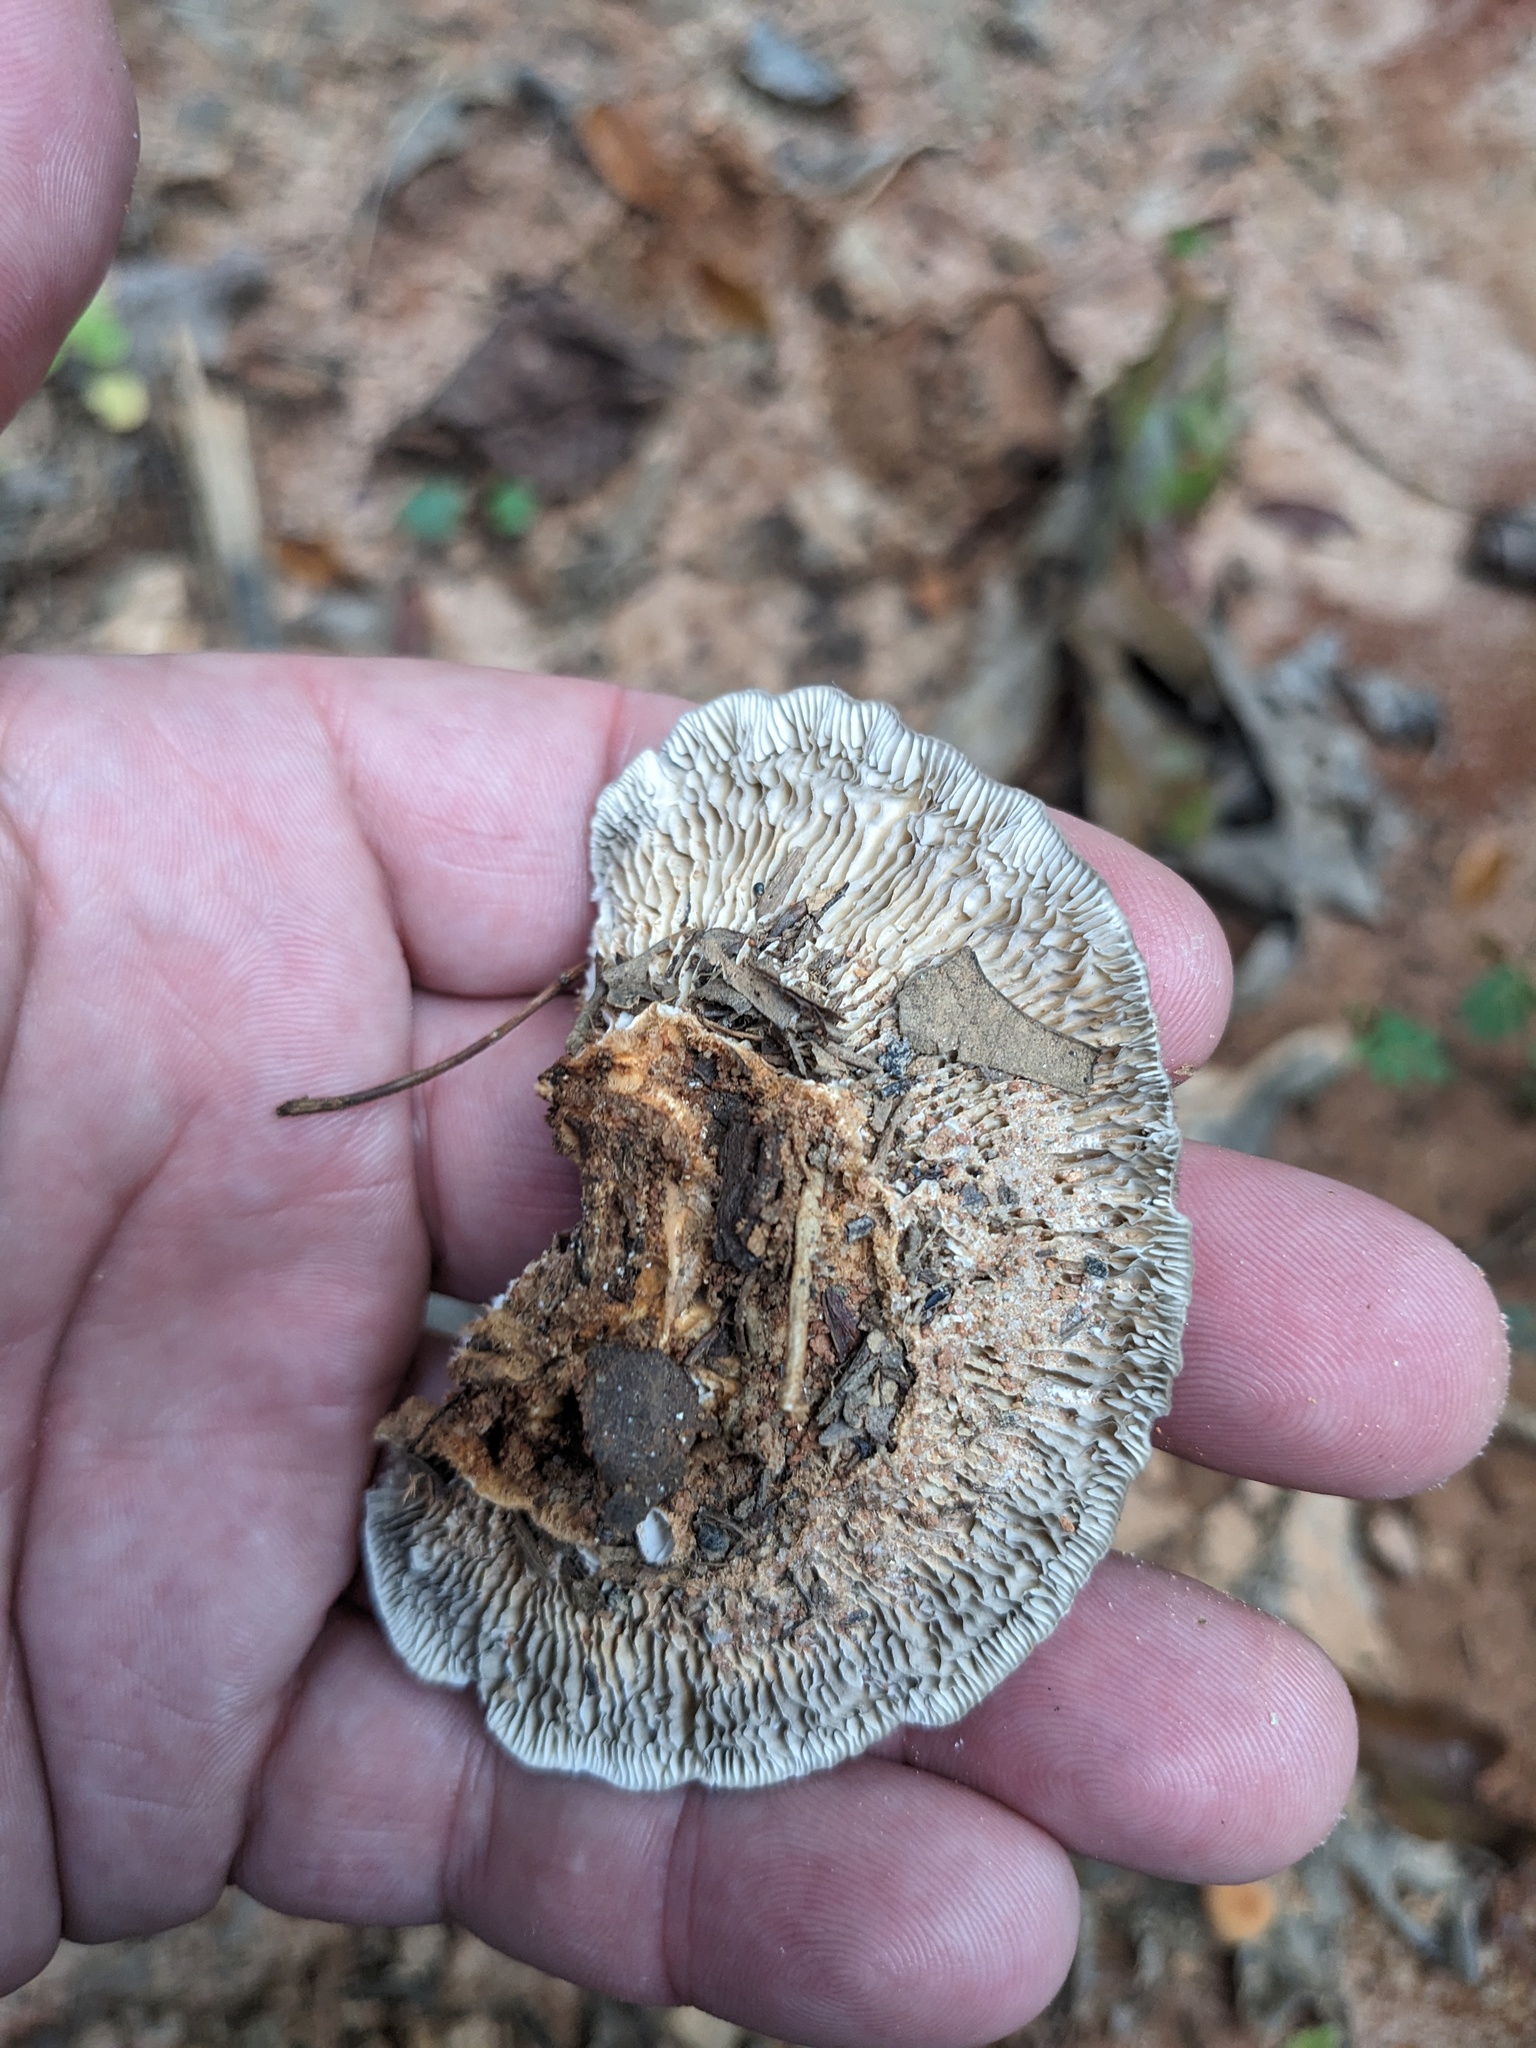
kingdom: Fungi
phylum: Basidiomycota
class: Agaricomycetes
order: Polyporales
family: Polyporaceae
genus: Lenzites
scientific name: Lenzites betulinus
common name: Birch mazegill
